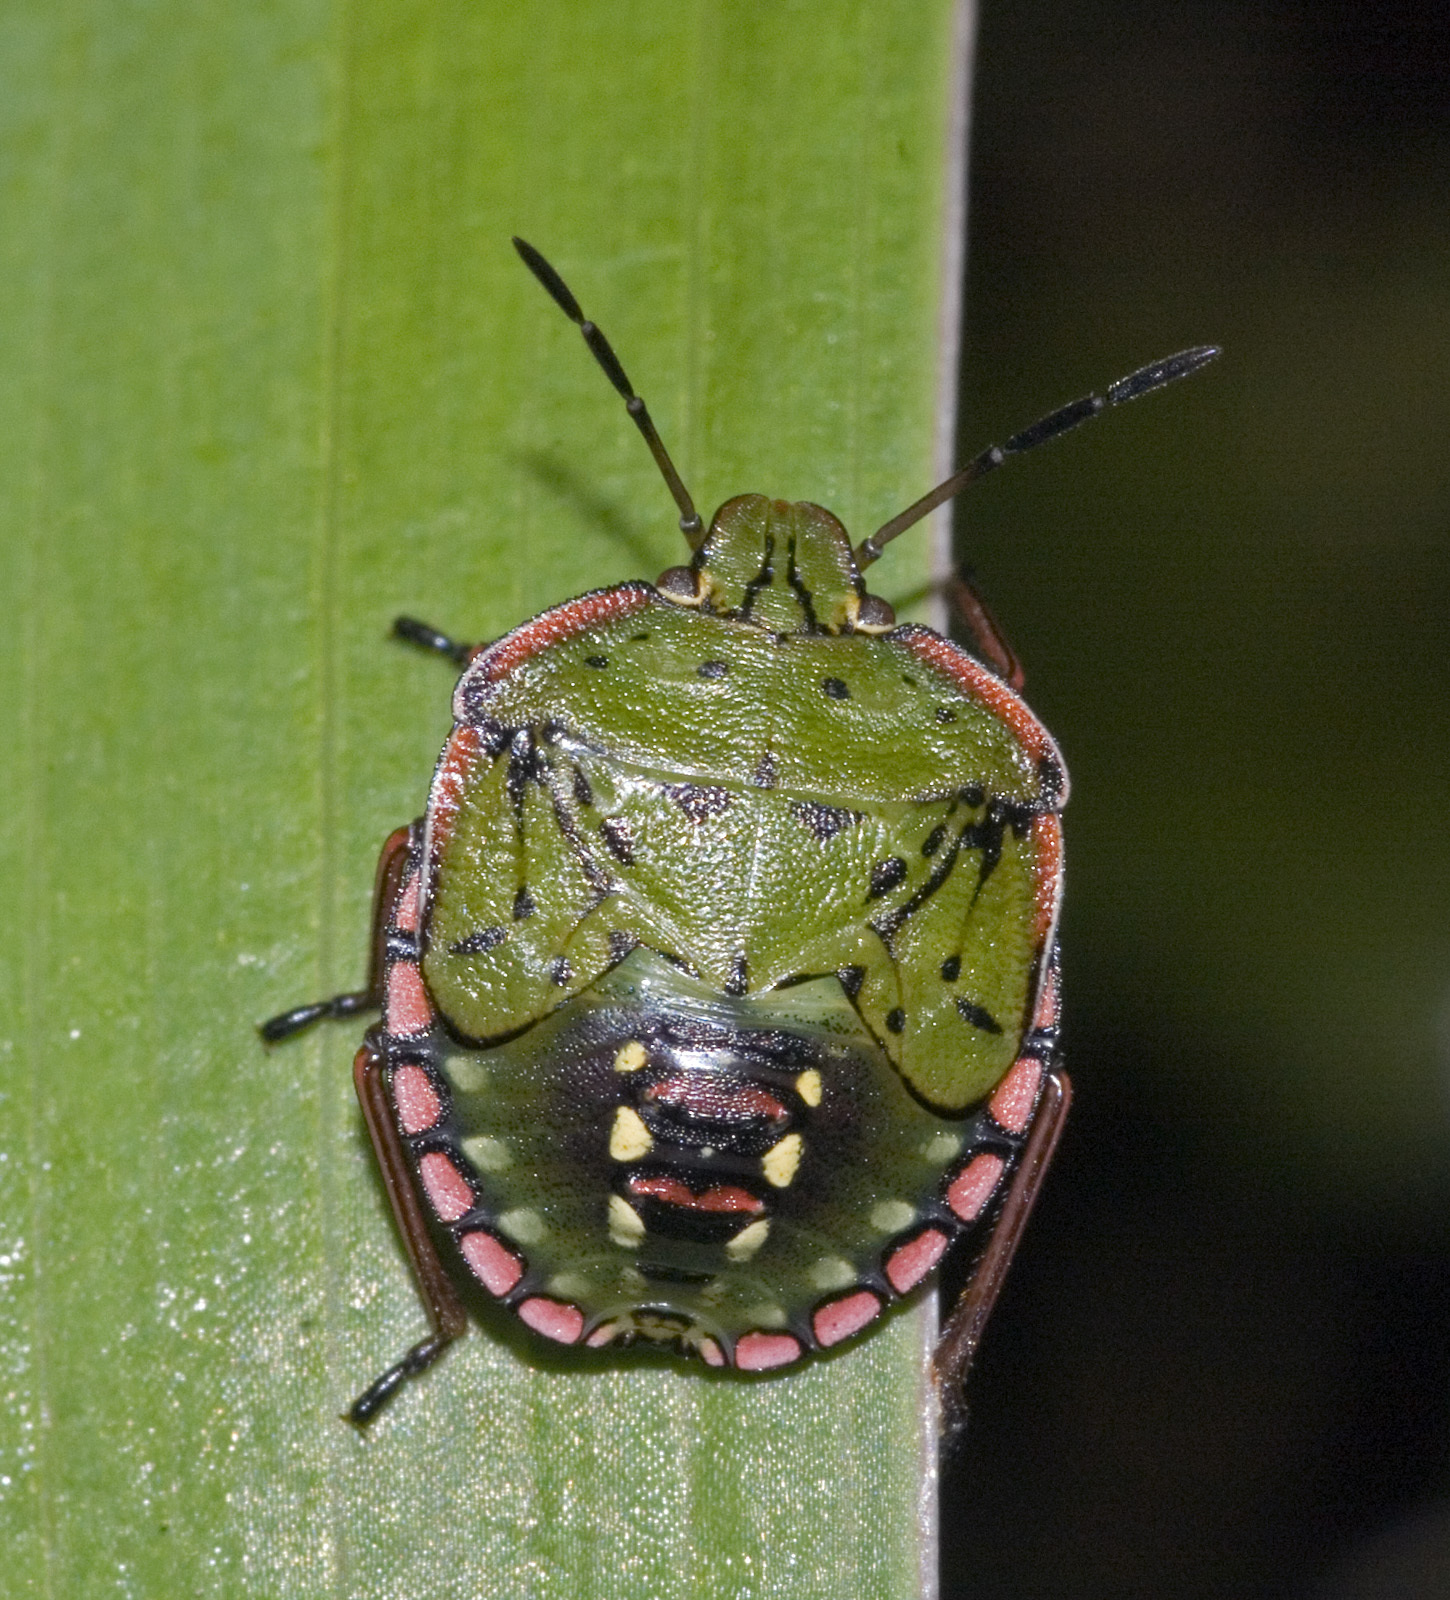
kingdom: Animalia
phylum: Arthropoda
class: Insecta
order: Hemiptera
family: Pentatomidae
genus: Nezara
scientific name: Nezara viridula
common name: Southern green stink bug
